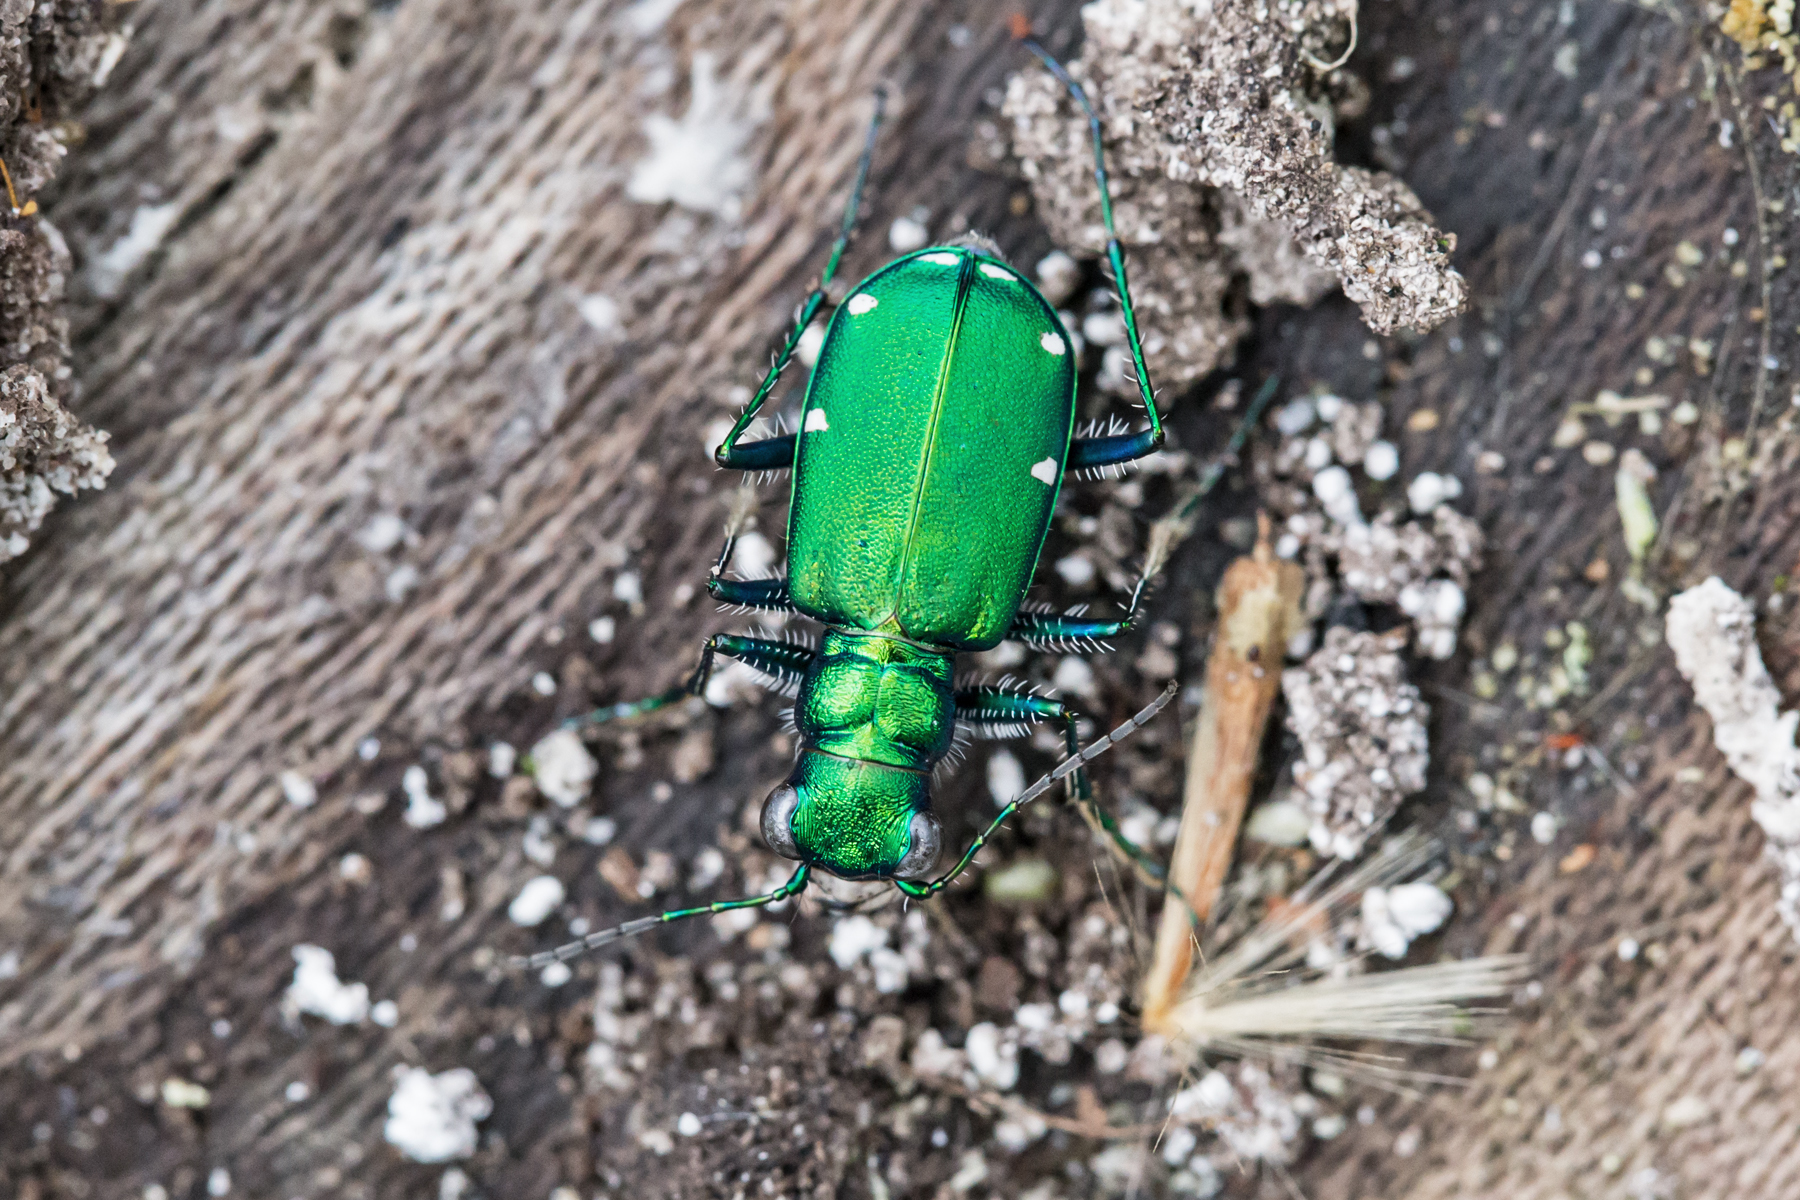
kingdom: Animalia
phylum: Arthropoda
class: Insecta
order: Coleoptera
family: Carabidae
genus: Cicindela
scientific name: Cicindela sexguttata
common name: Six-spotted tiger beetle
